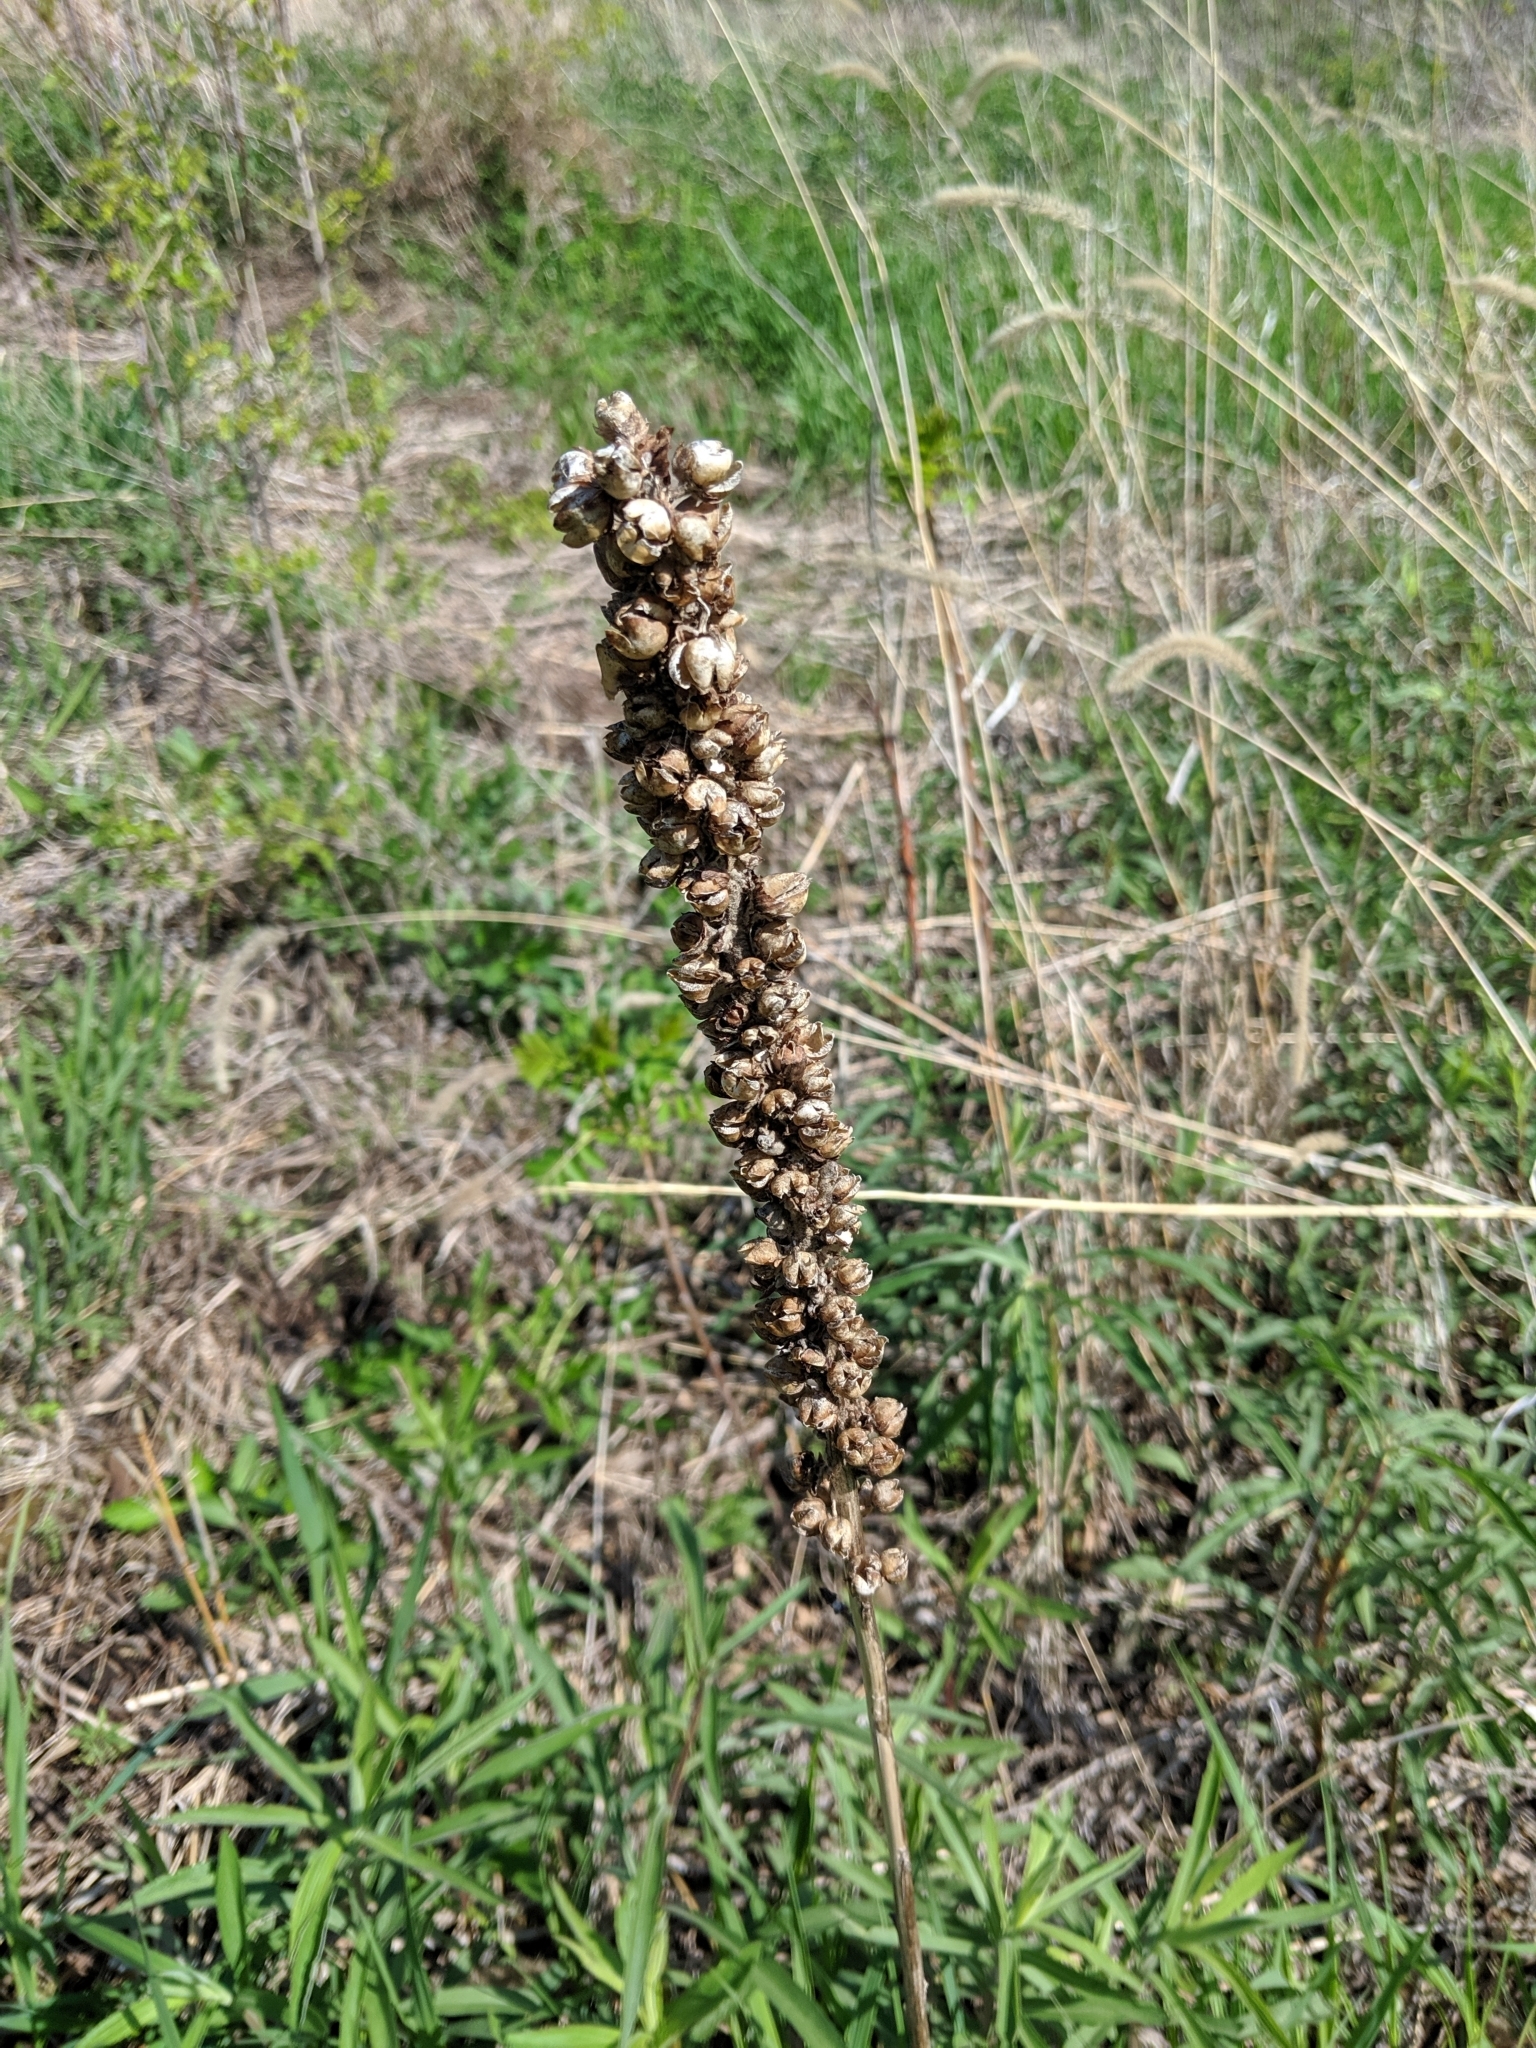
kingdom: Plantae
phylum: Tracheophyta
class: Magnoliopsida
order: Lamiales
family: Scrophulariaceae
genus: Verbascum
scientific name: Verbascum thapsus
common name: Common mullein
